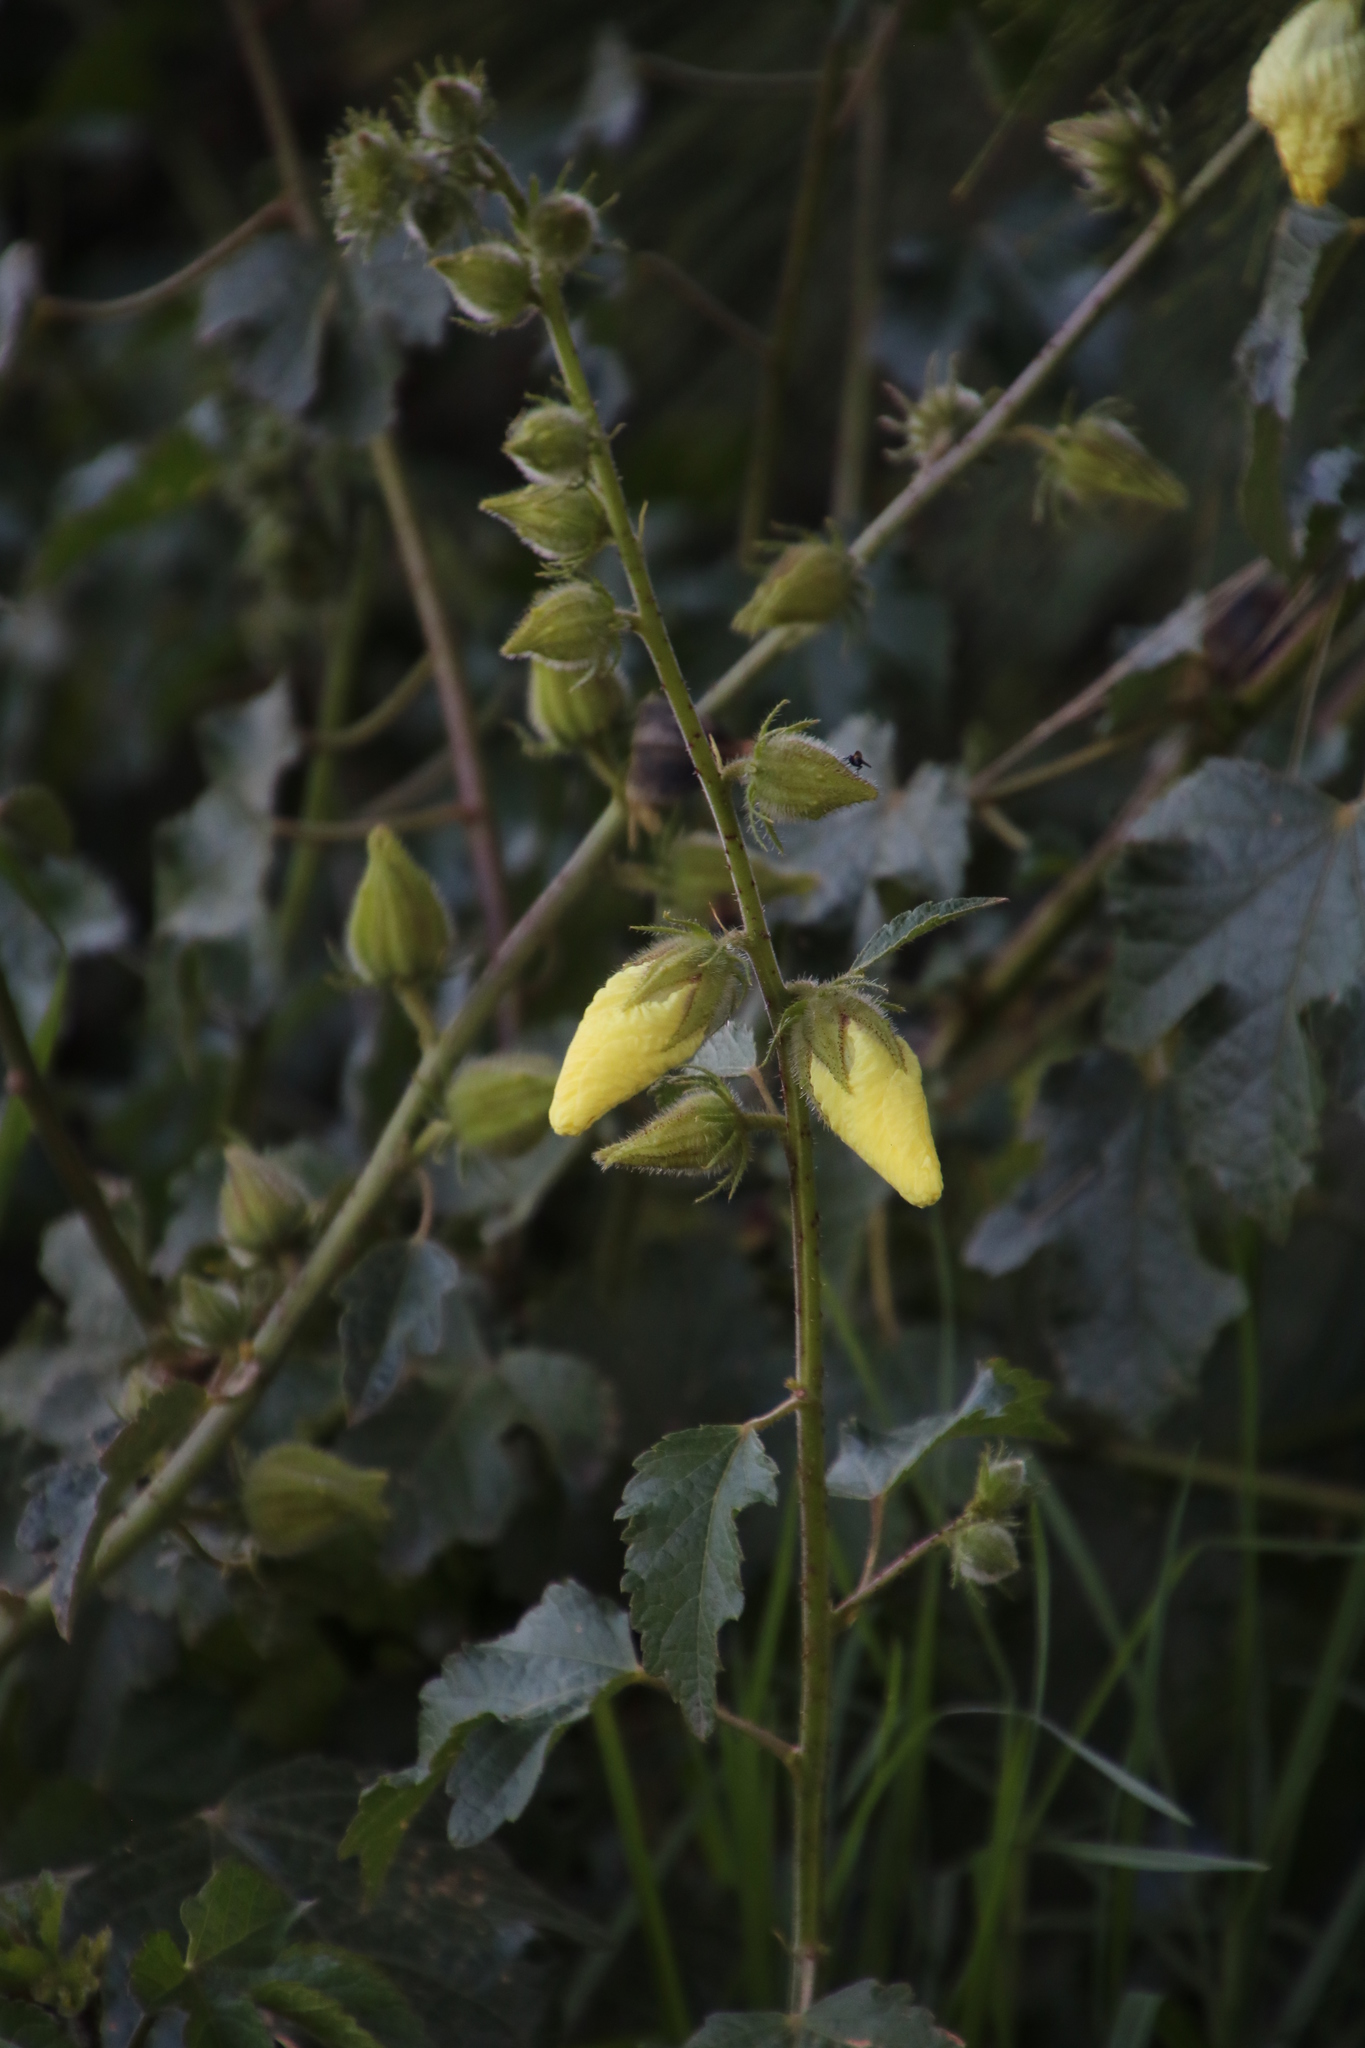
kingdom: Plantae
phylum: Tracheophyta
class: Magnoliopsida
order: Malvales
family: Malvaceae
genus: Hibiscus
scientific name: Hibiscus diversifolius
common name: Cape hibiscus
